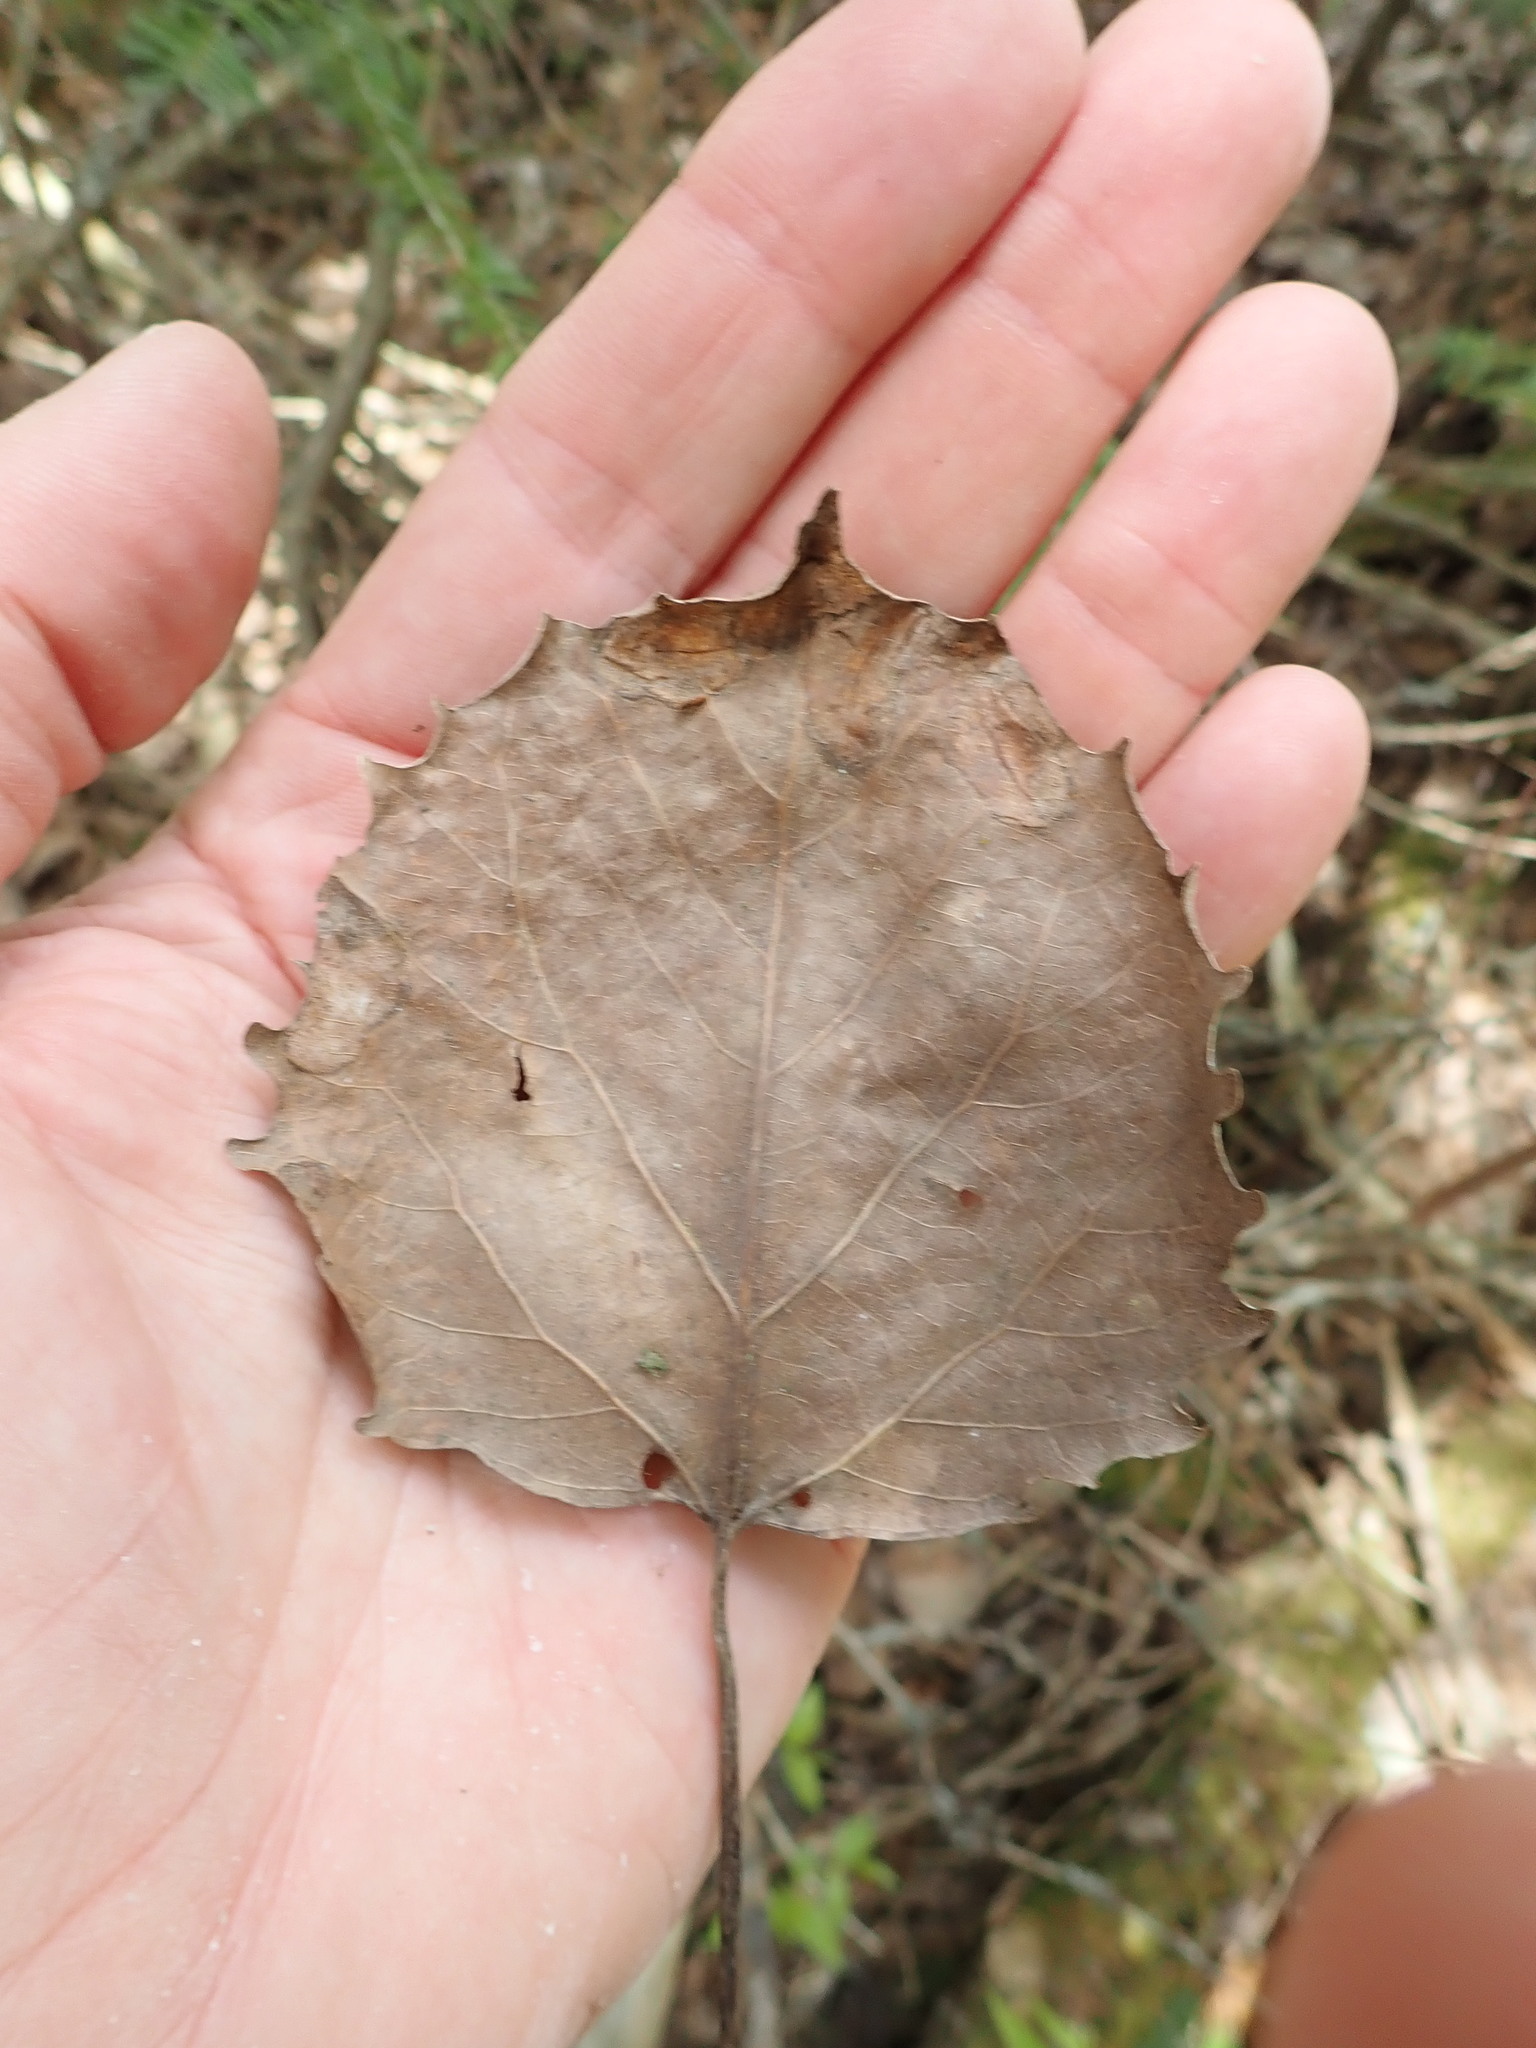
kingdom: Plantae
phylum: Tracheophyta
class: Magnoliopsida
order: Malpighiales
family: Salicaceae
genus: Populus
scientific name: Populus grandidentata
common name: Bigtooth aspen
